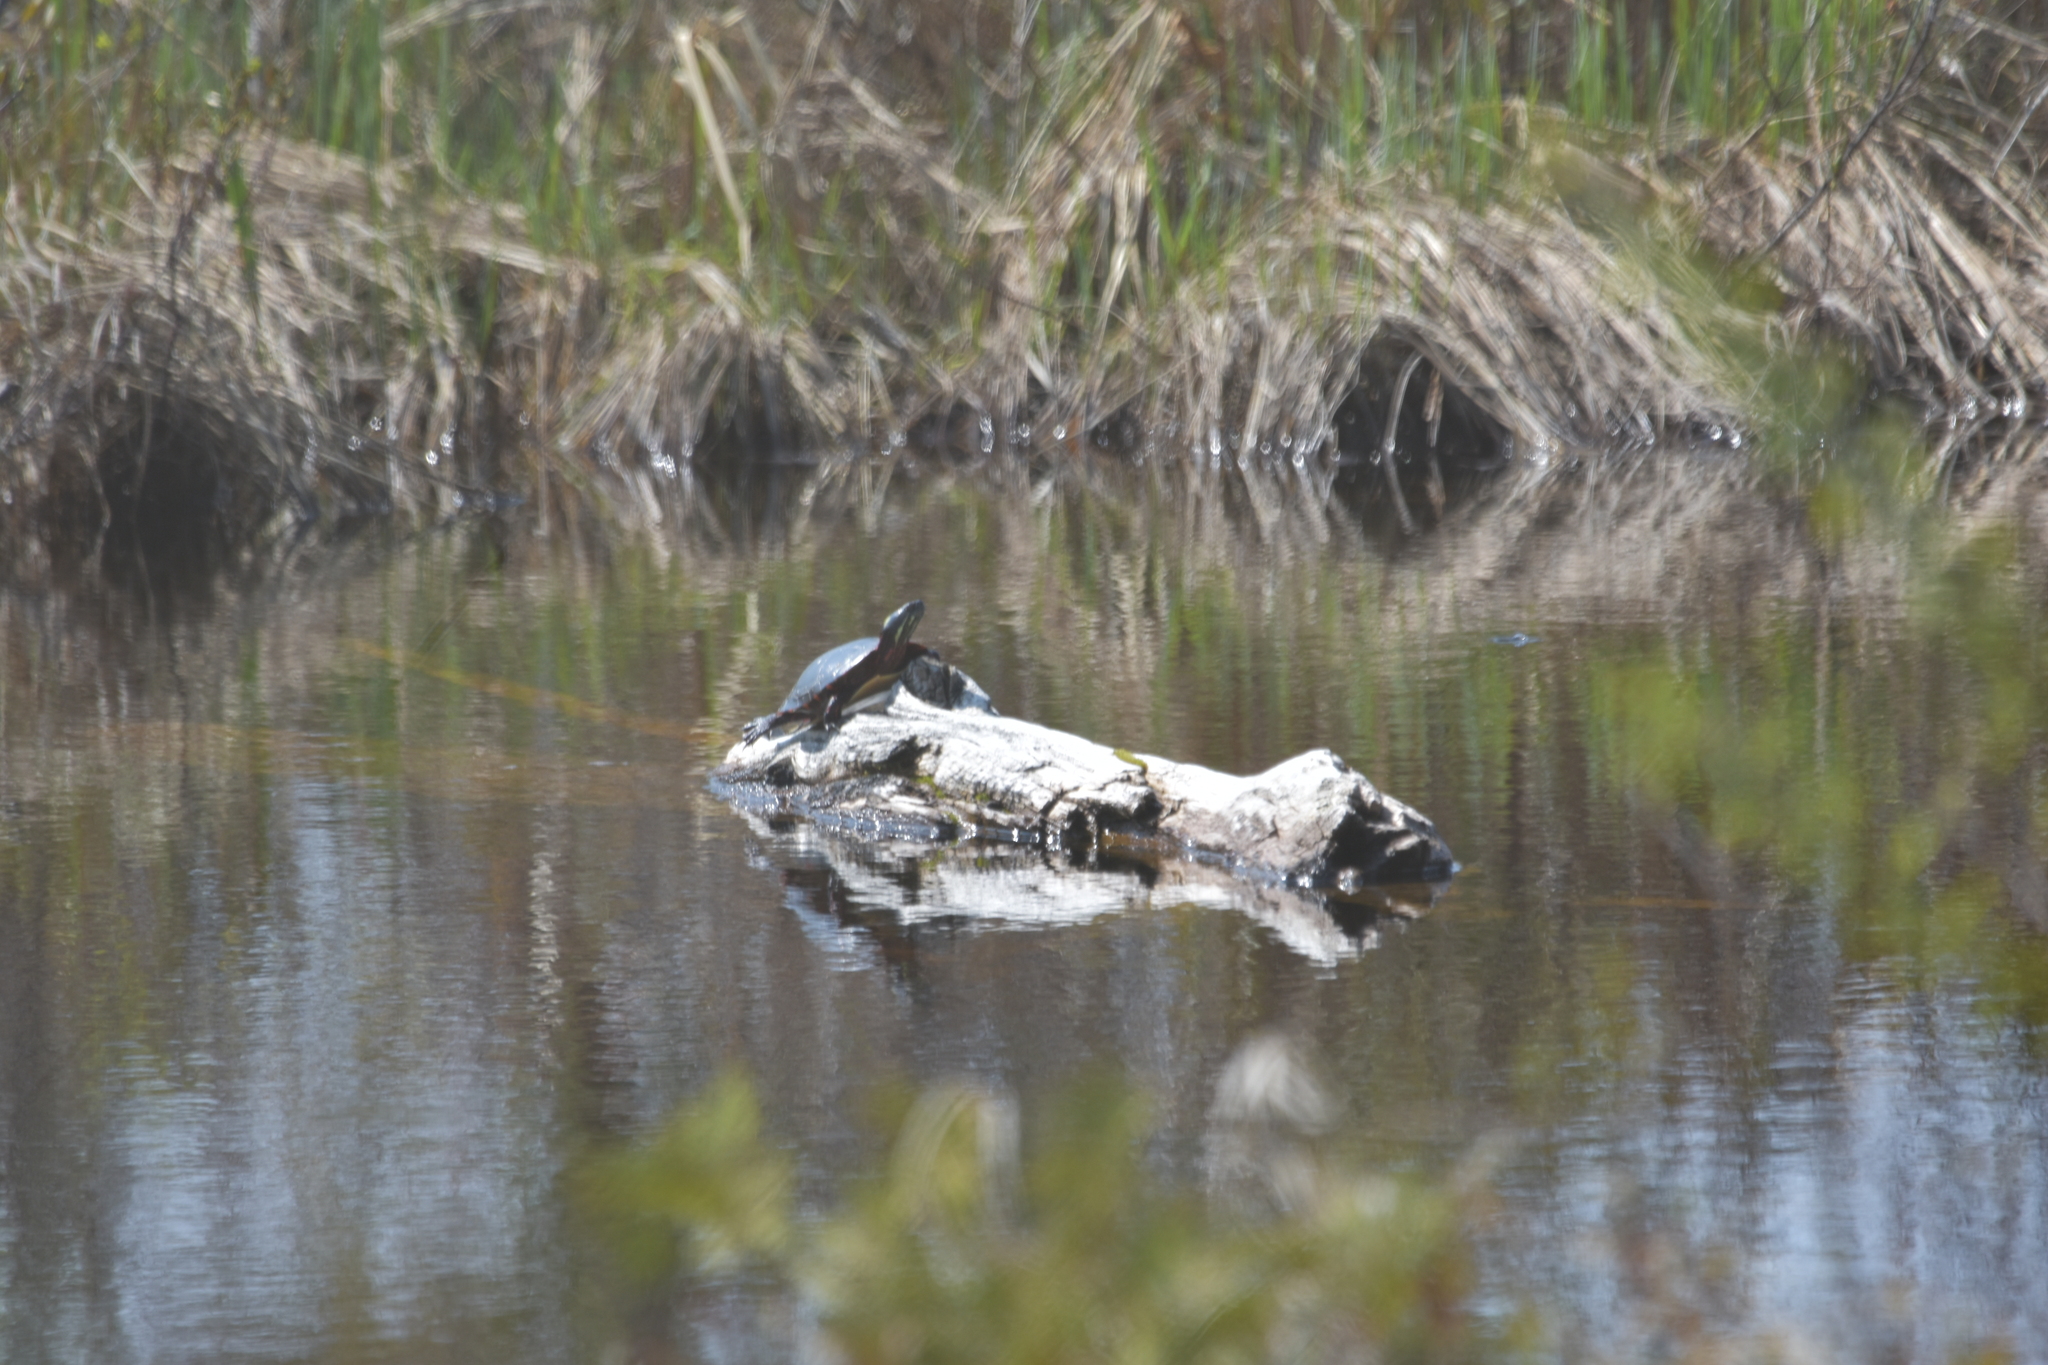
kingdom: Animalia
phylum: Chordata
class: Testudines
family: Emydidae
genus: Chrysemys
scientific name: Chrysemys picta
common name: Painted turtle
